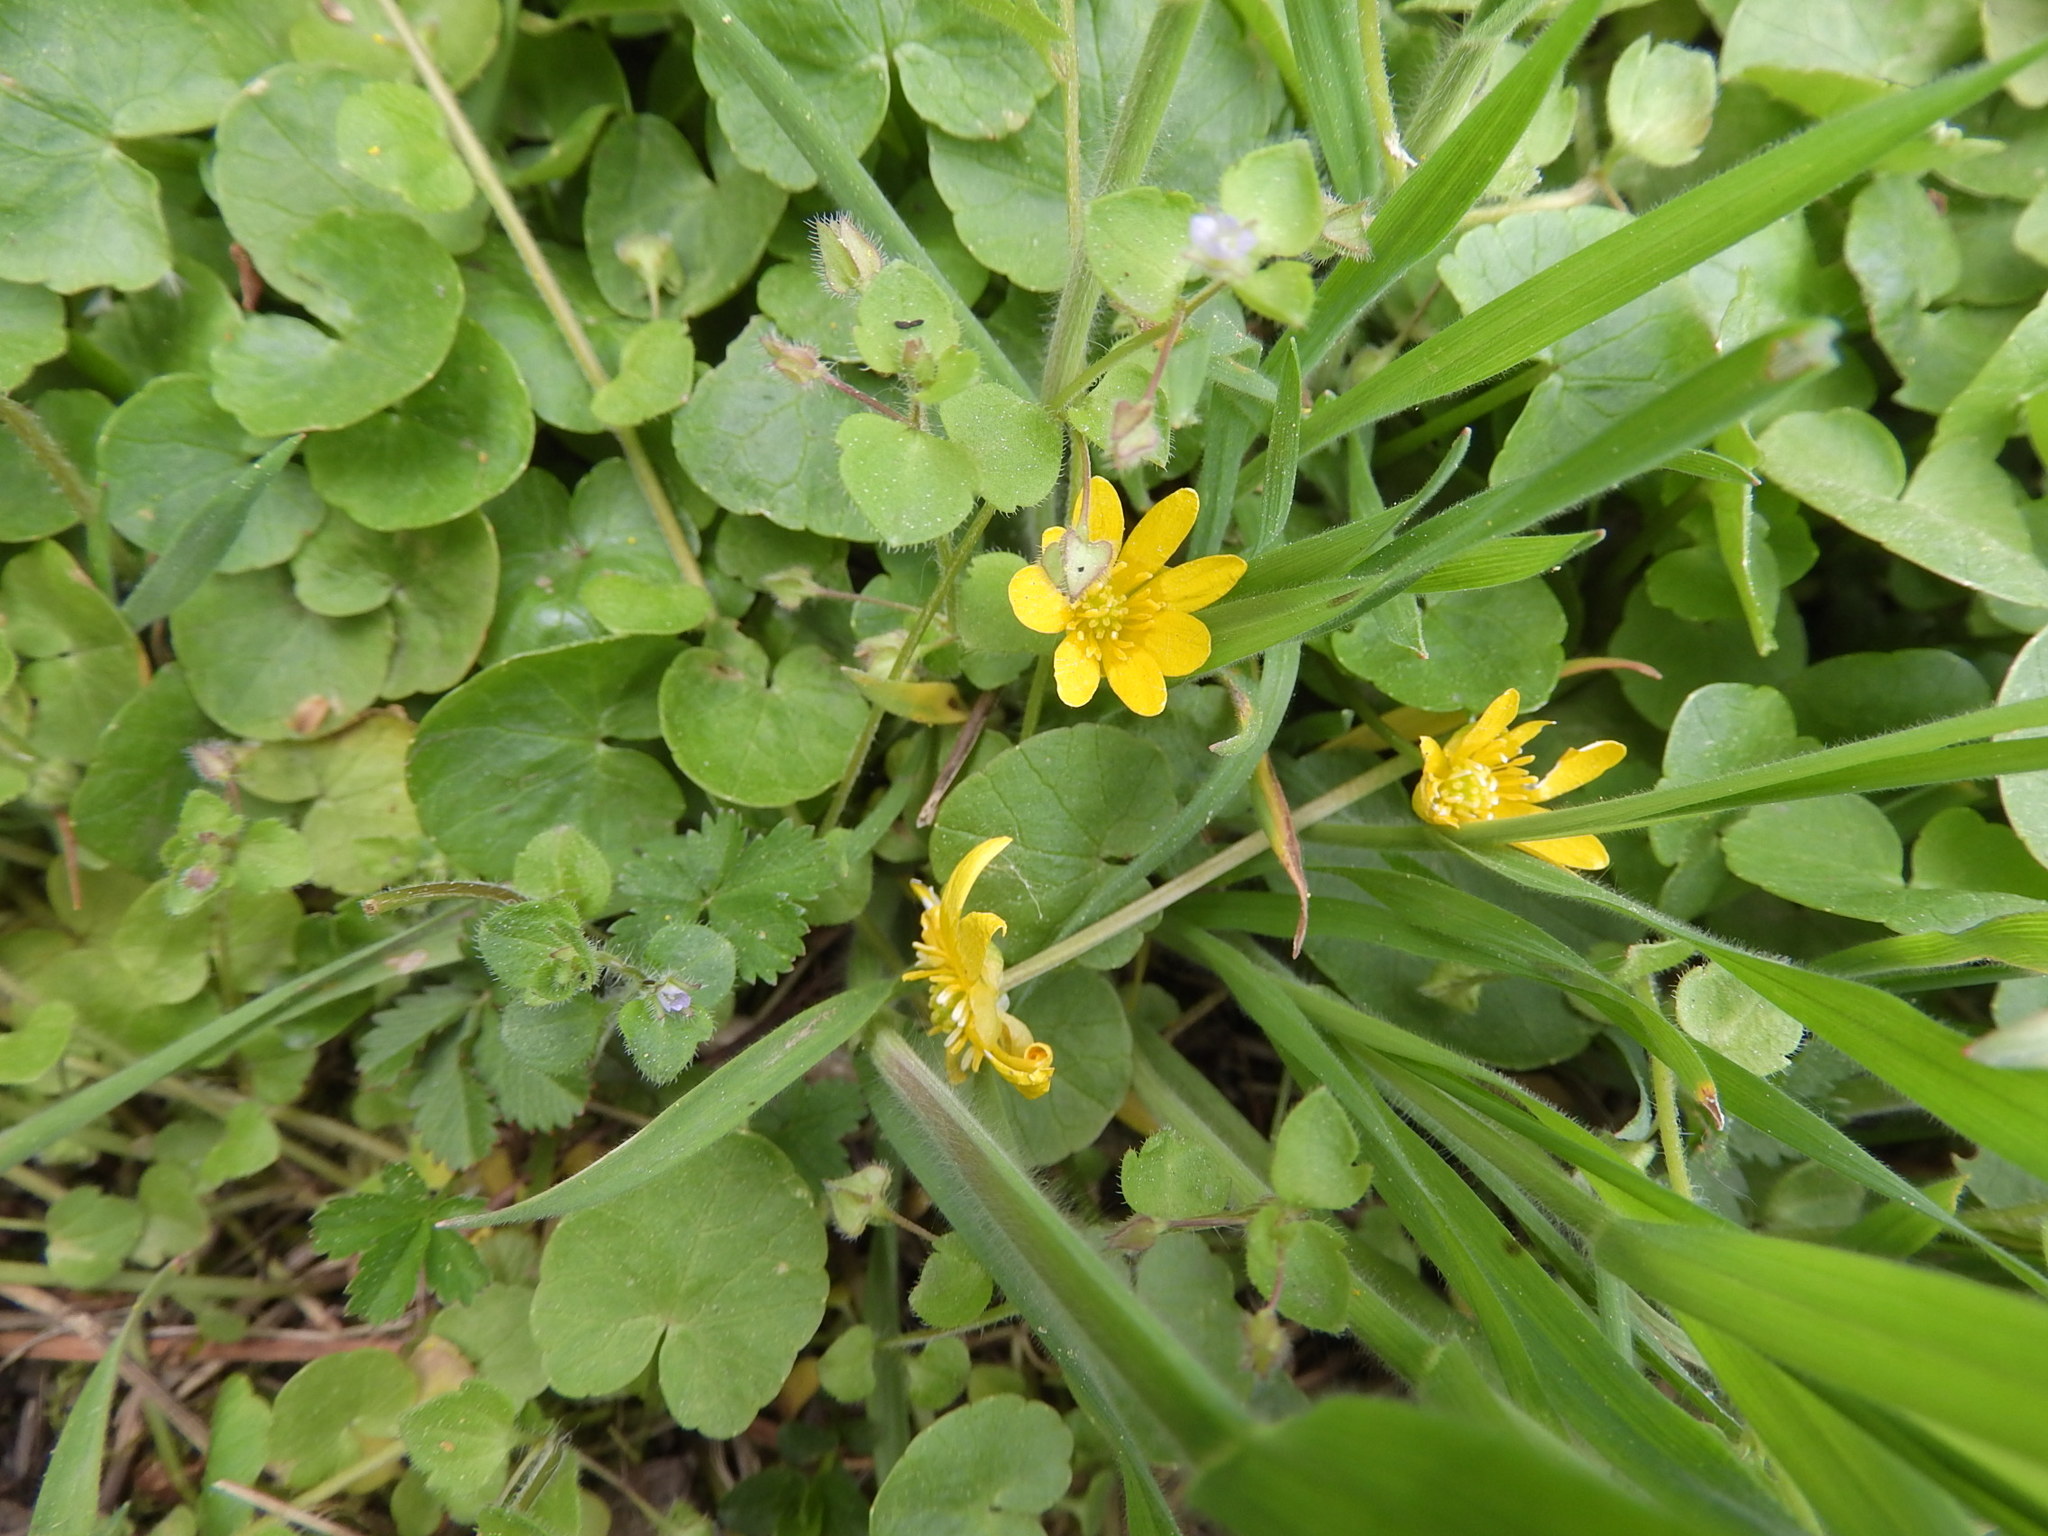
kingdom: Plantae
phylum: Tracheophyta
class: Magnoliopsida
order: Ranunculales
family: Ranunculaceae
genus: Ficaria
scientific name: Ficaria verna
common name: Lesser celandine
